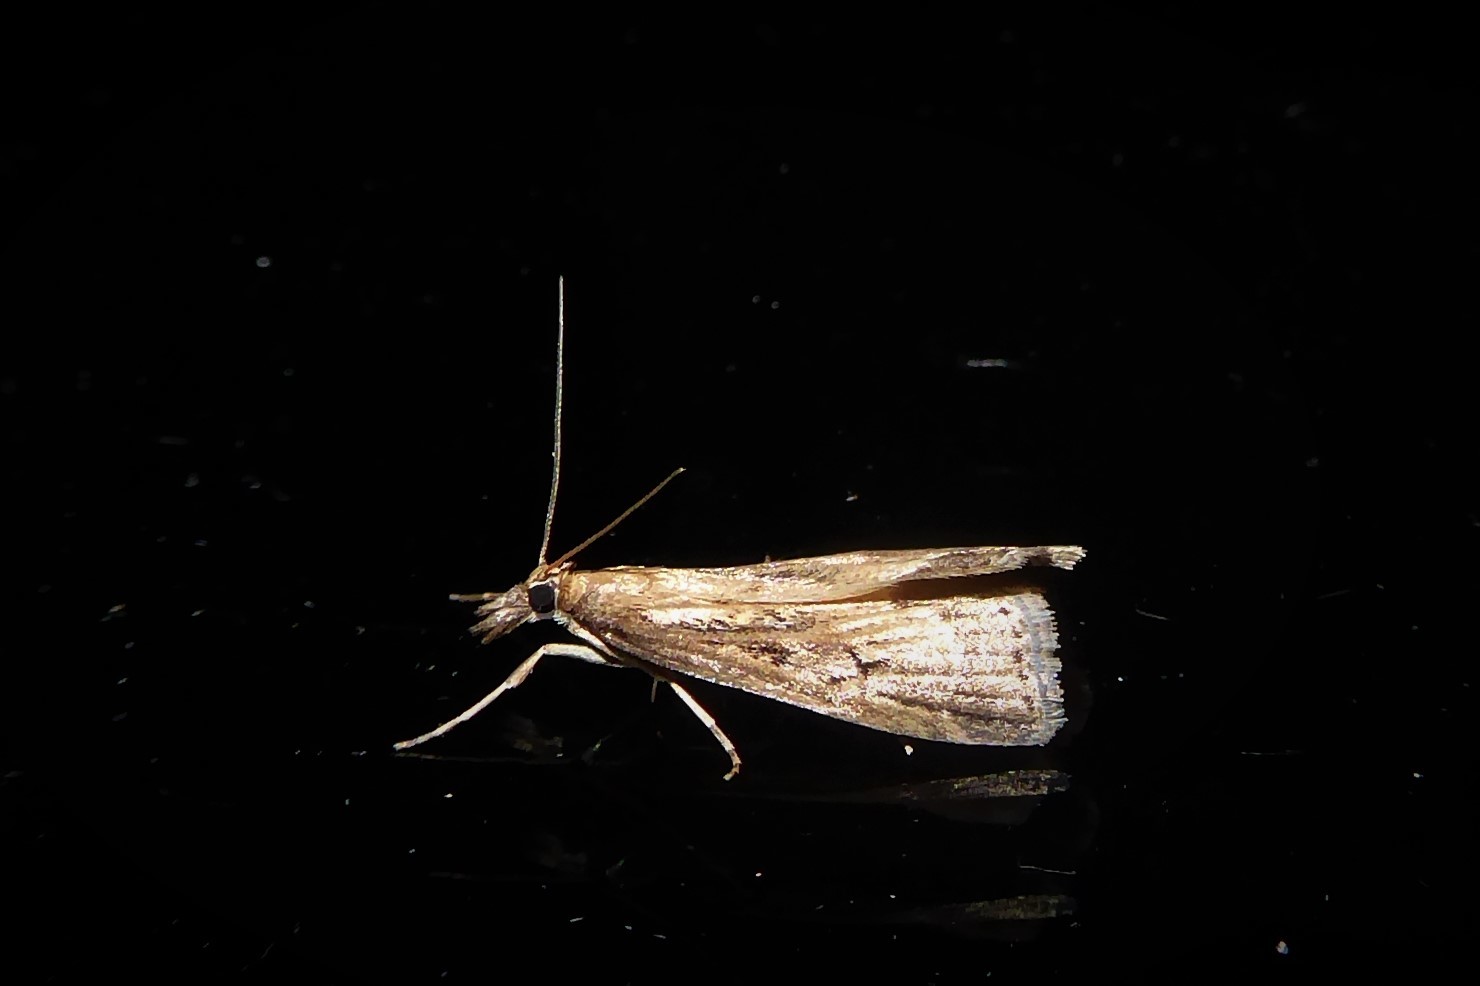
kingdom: Animalia
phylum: Arthropoda
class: Insecta
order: Lepidoptera
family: Crambidae
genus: Eudonia
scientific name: Eudonia octophora
